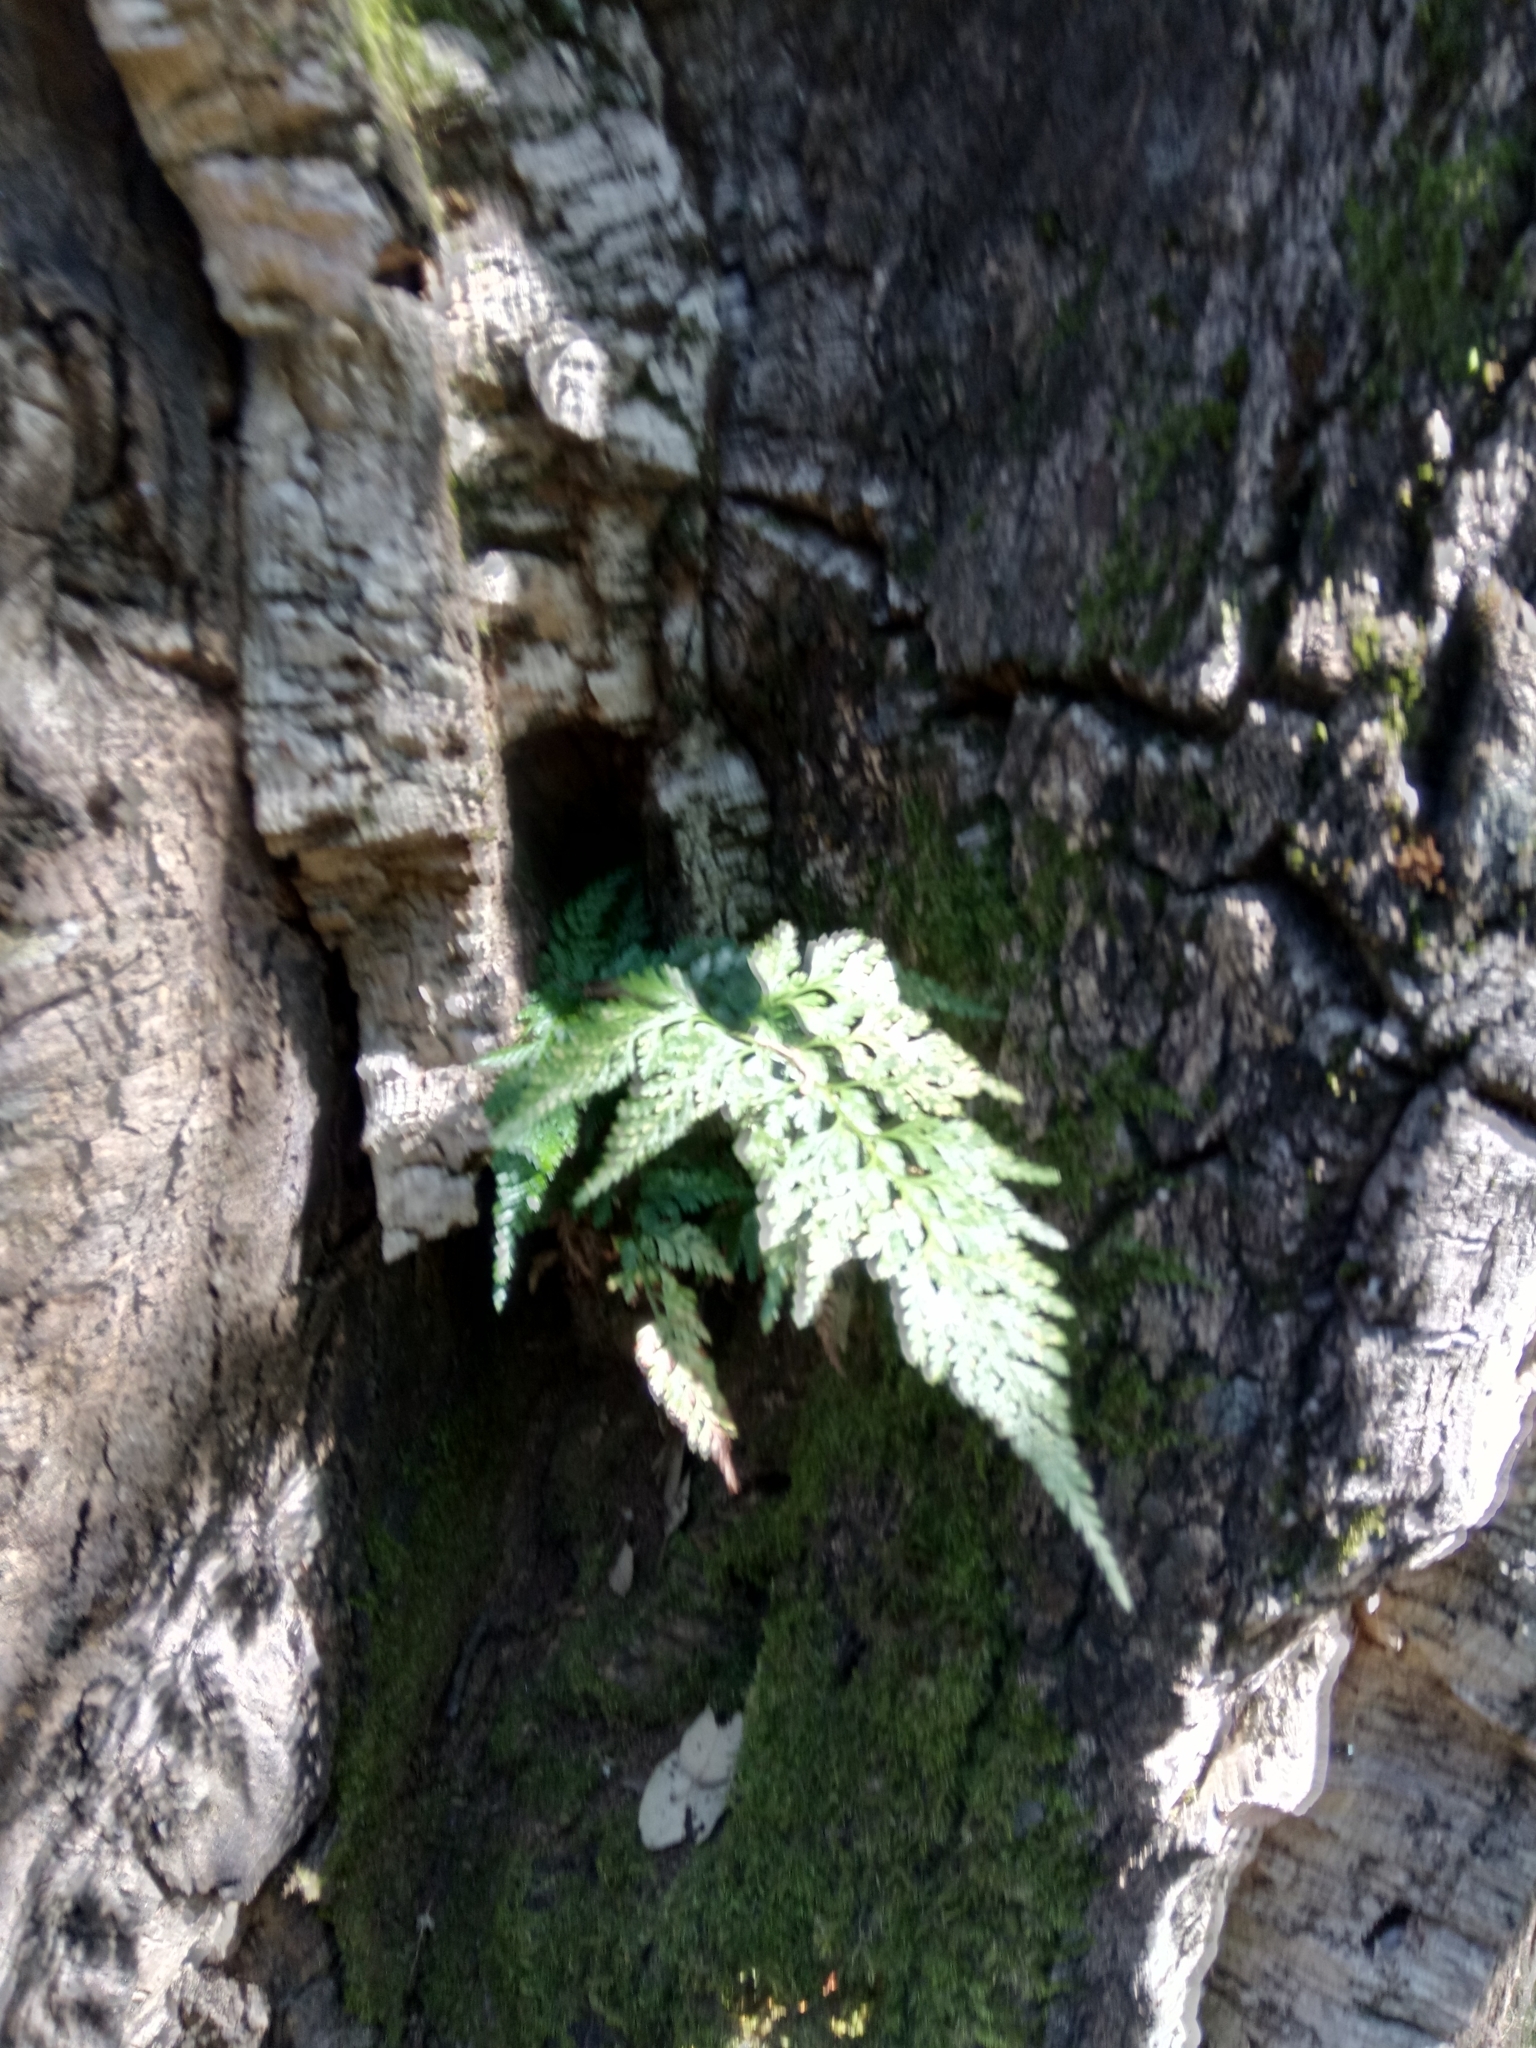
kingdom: Plantae
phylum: Tracheophyta
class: Polypodiopsida
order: Polypodiales
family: Aspleniaceae
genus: Asplenium
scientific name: Asplenium onopteris
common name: Irish spleenwort
